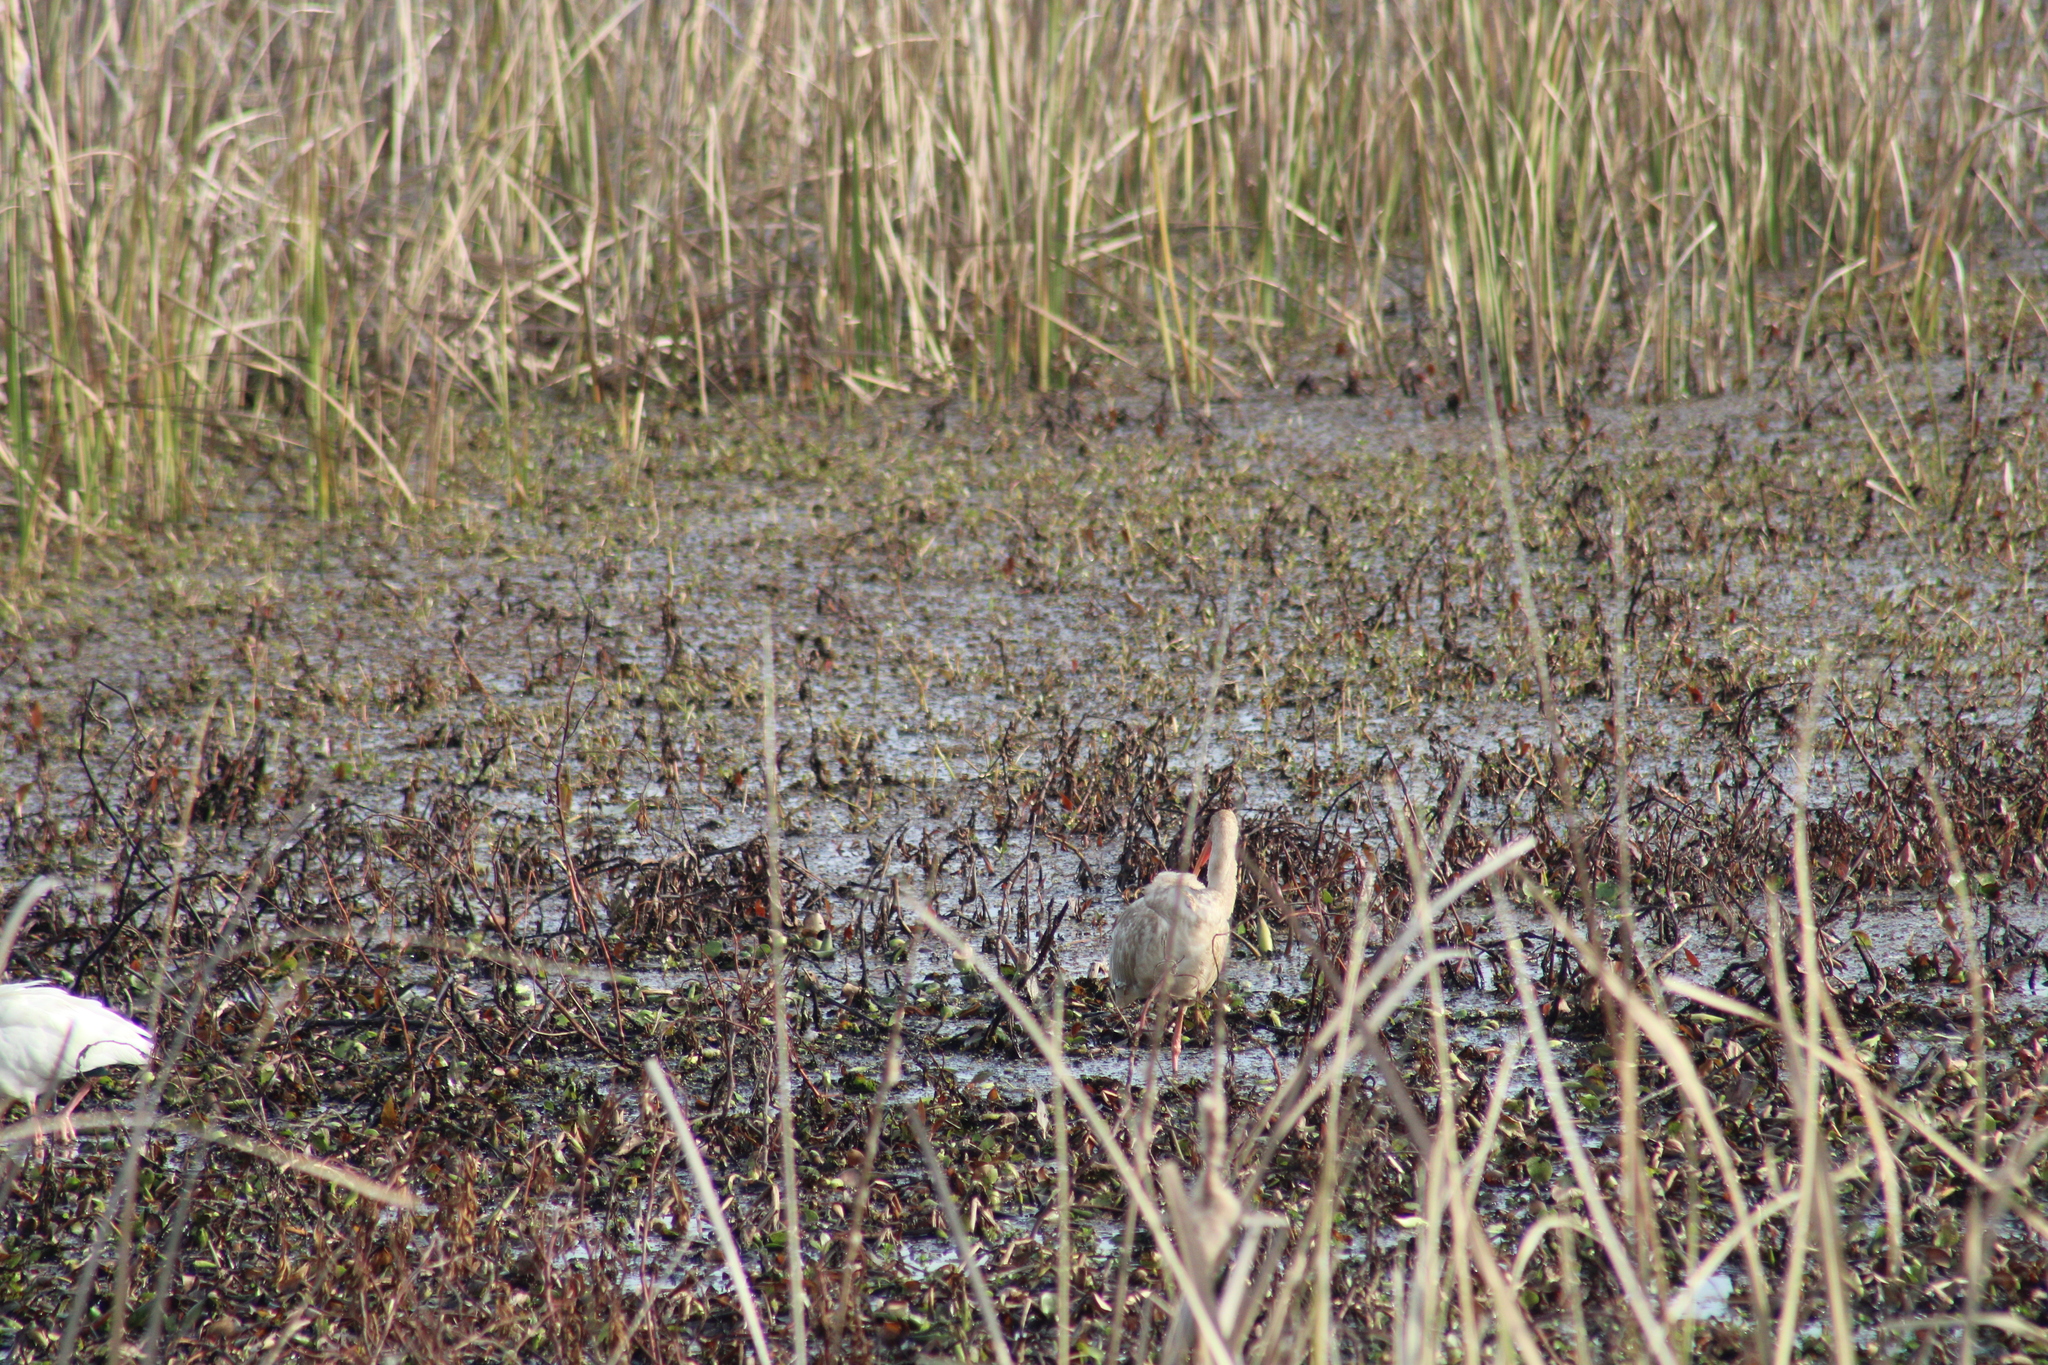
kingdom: Animalia
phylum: Chordata
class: Aves
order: Pelecaniformes
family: Threskiornithidae
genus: Eudocimus
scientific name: Eudocimus albus
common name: White ibis
